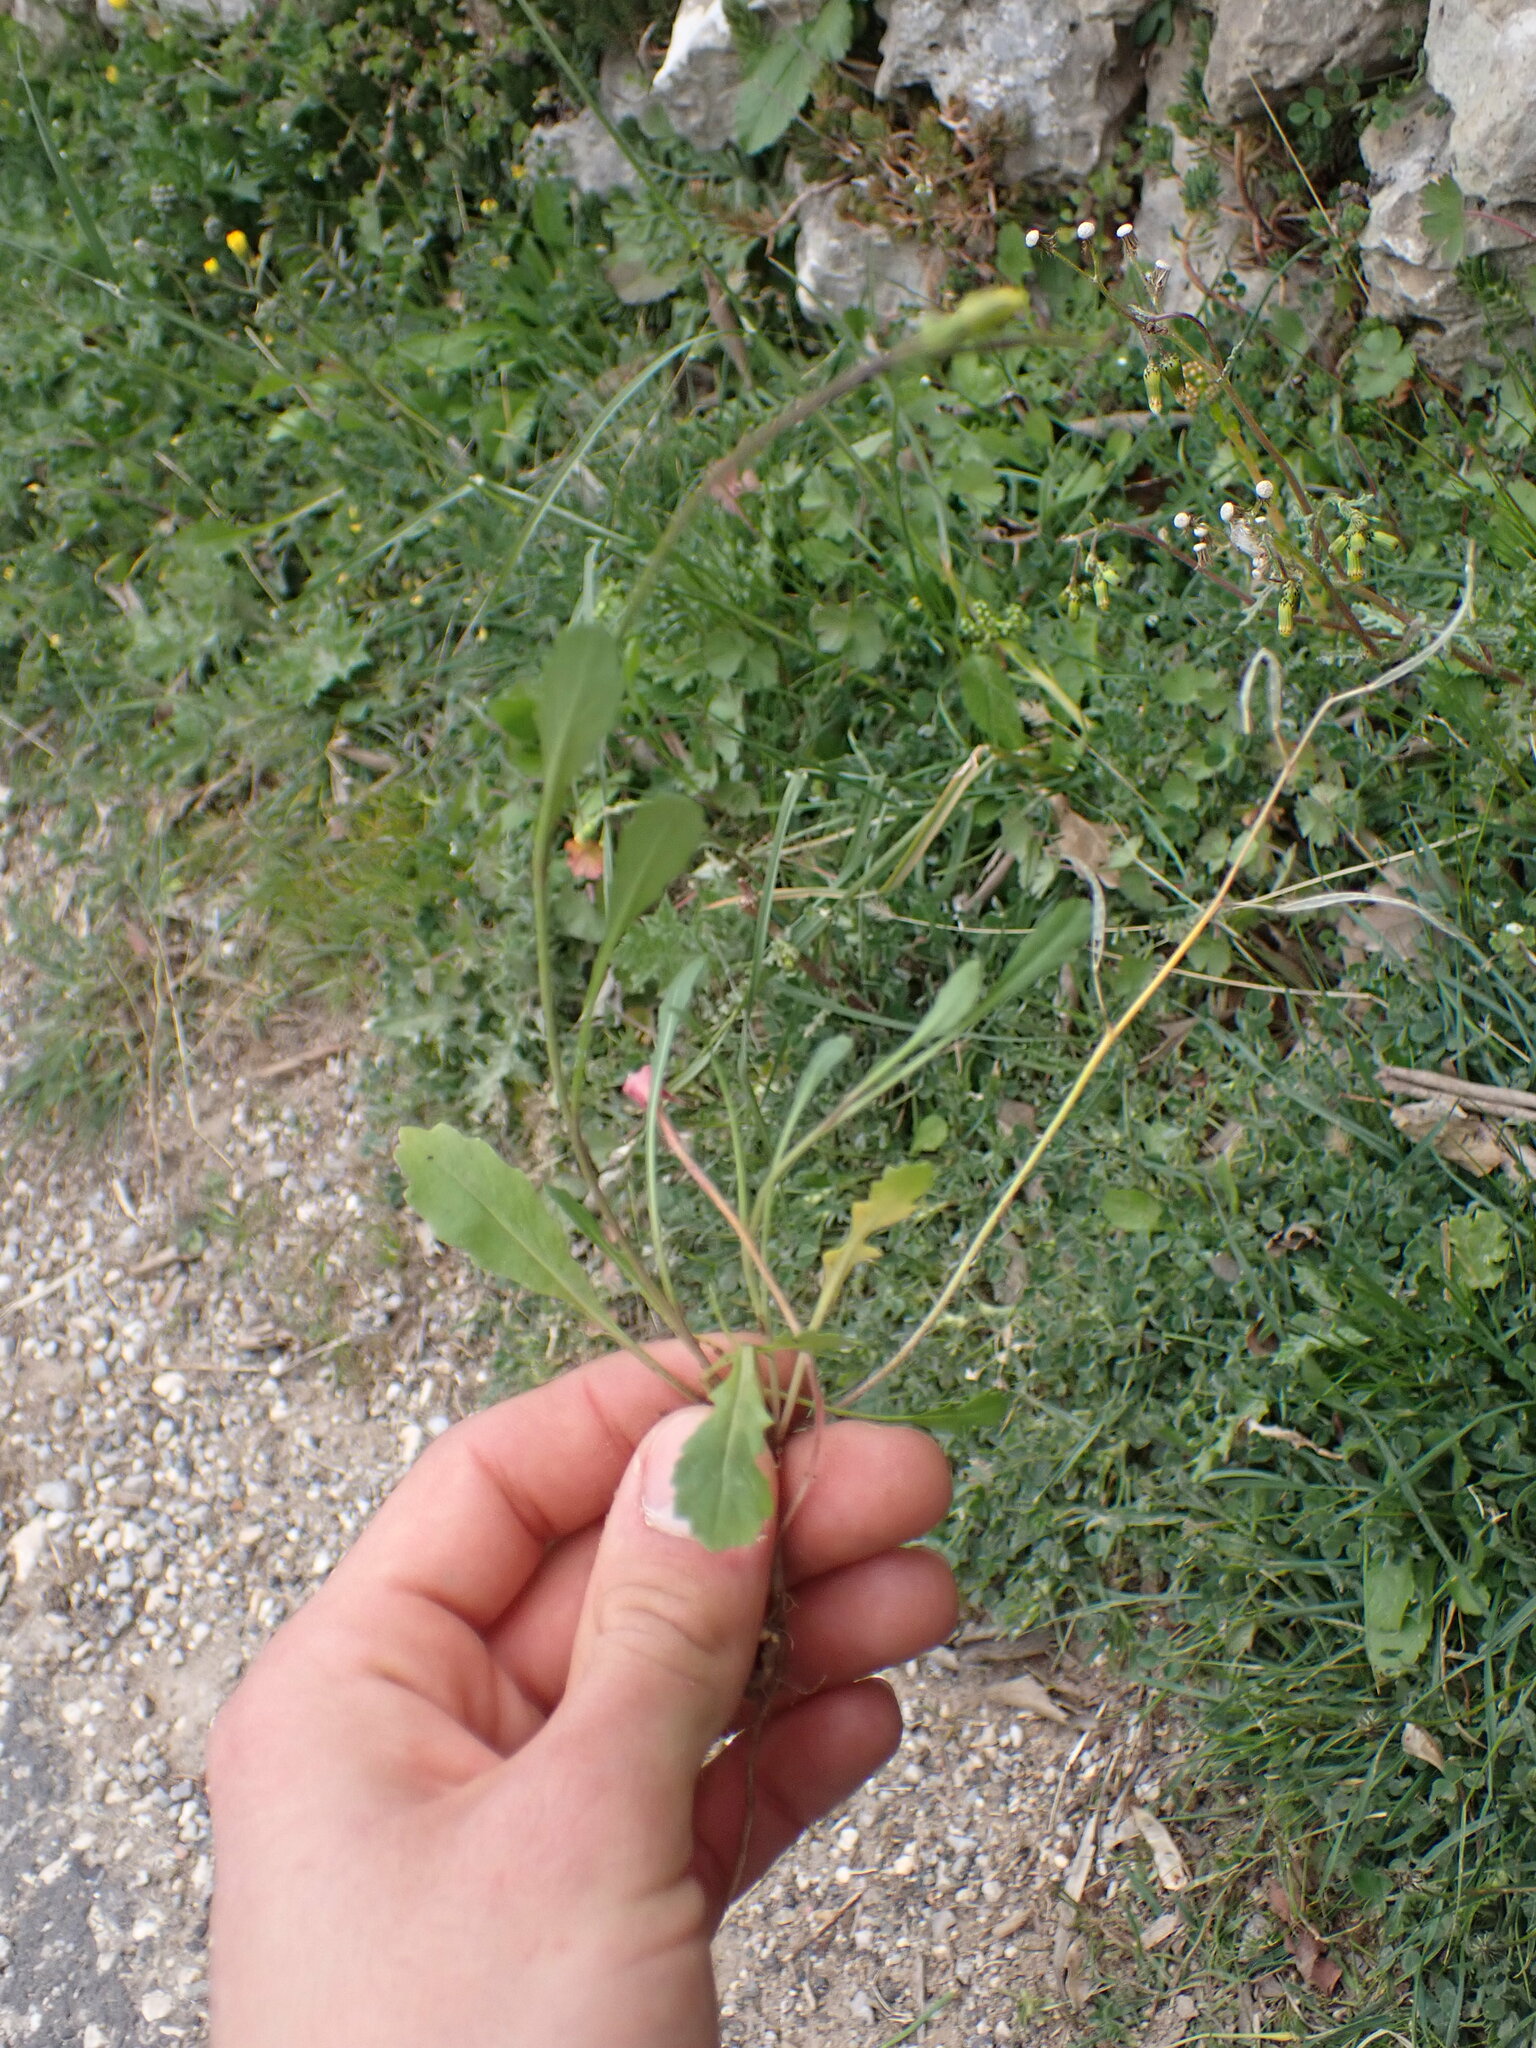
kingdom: Plantae
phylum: Tracheophyta
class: Magnoliopsida
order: Brassicales
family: Brassicaceae
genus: Diplotaxis
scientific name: Diplotaxis muralis
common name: Annual wall-rocket
